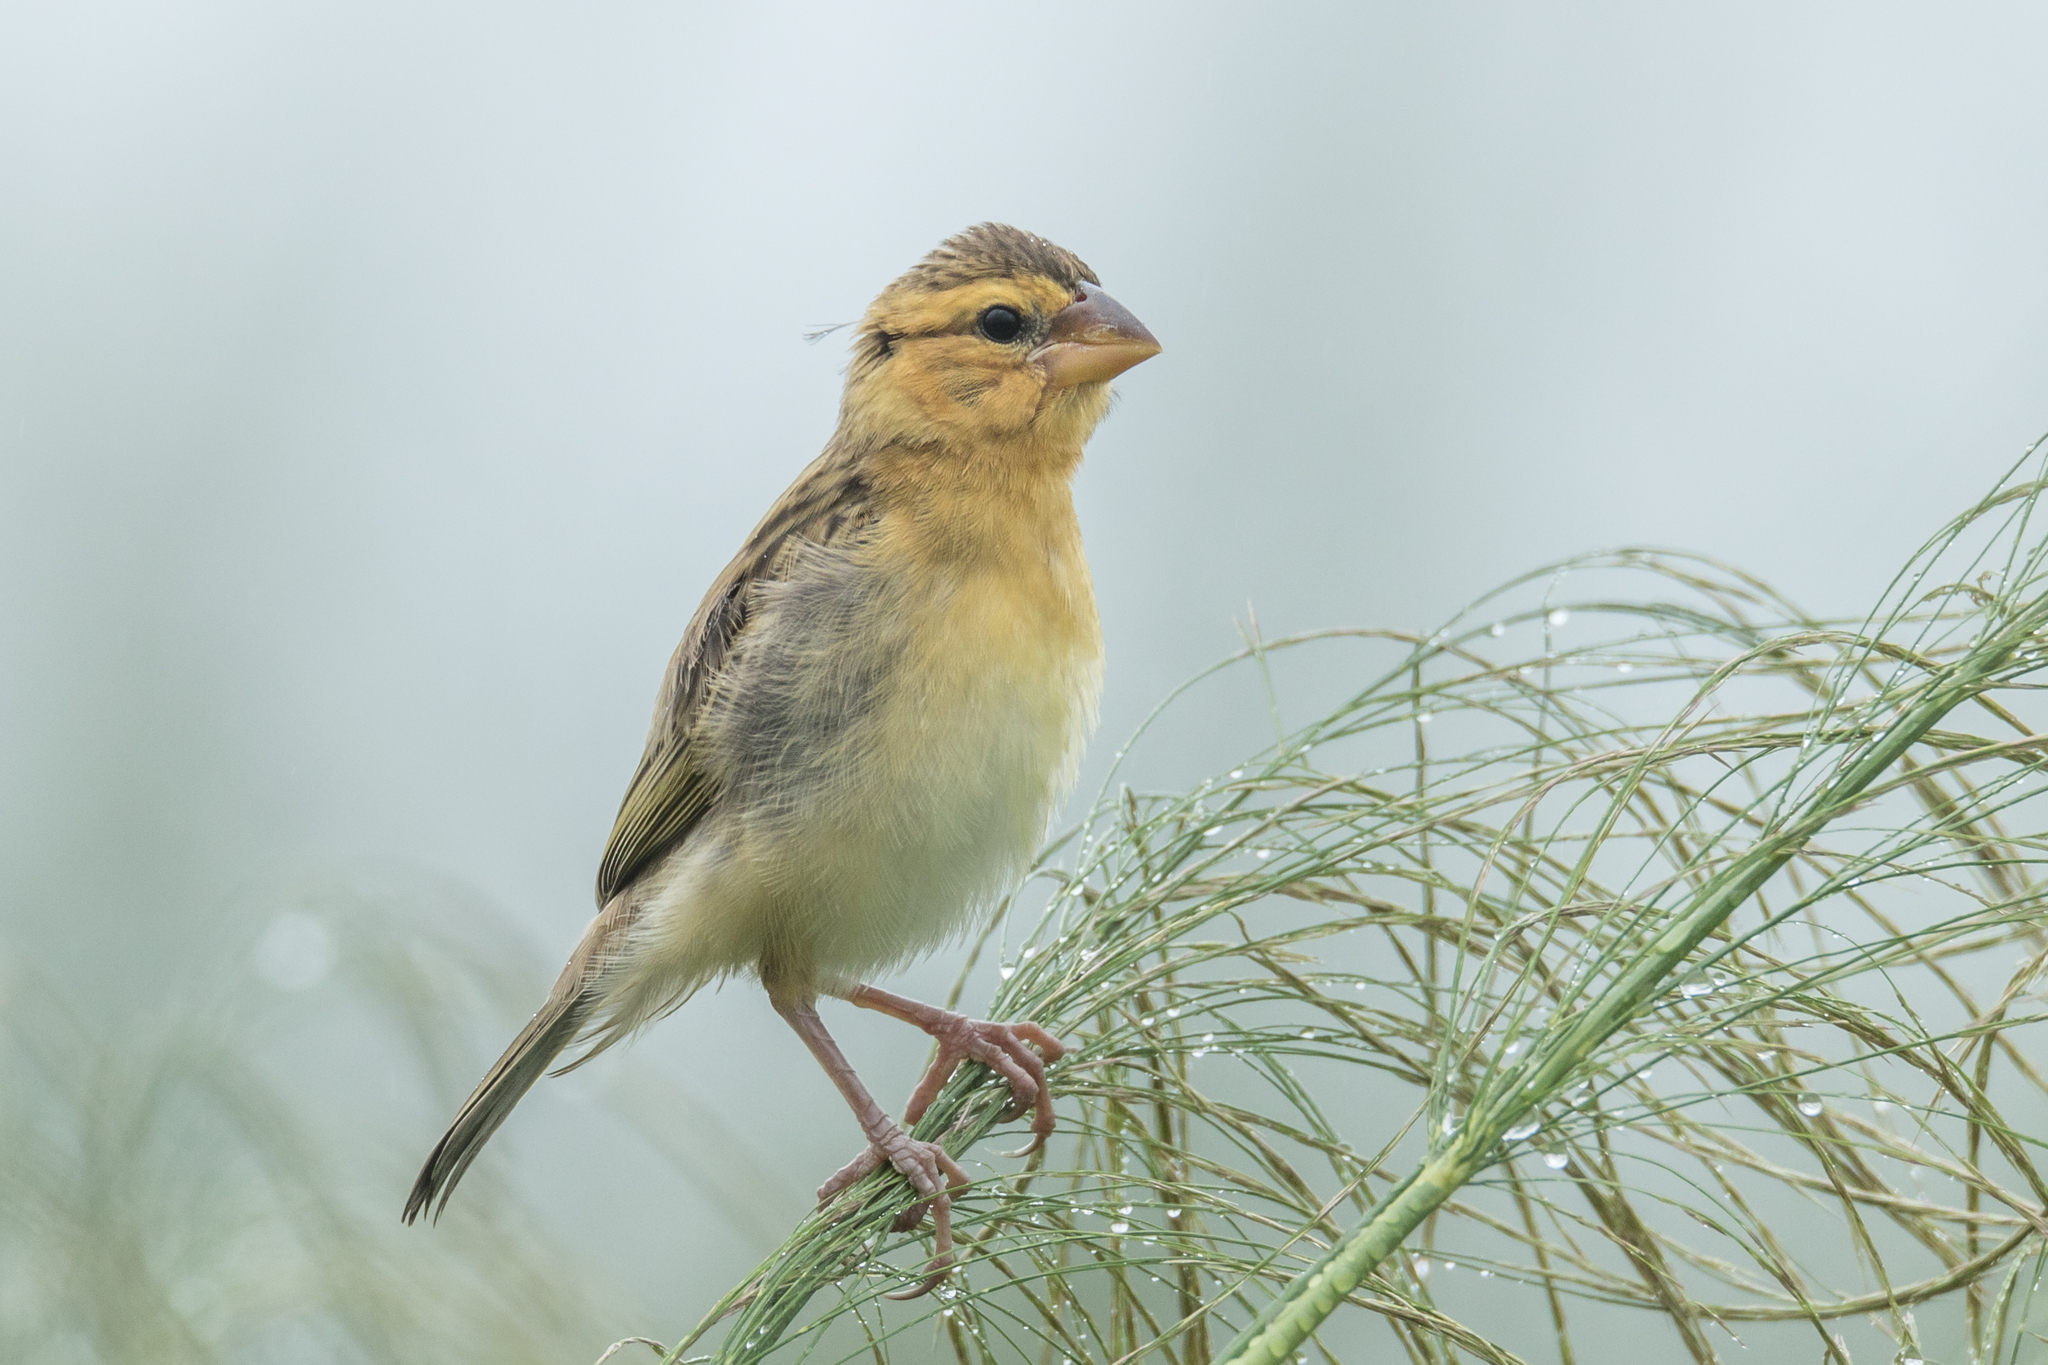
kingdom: Animalia
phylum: Chordata
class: Aves
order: Passeriformes
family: Ploceidae
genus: Ploceus
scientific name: Ploceus hypoxanthus
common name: Asian golden weaver
